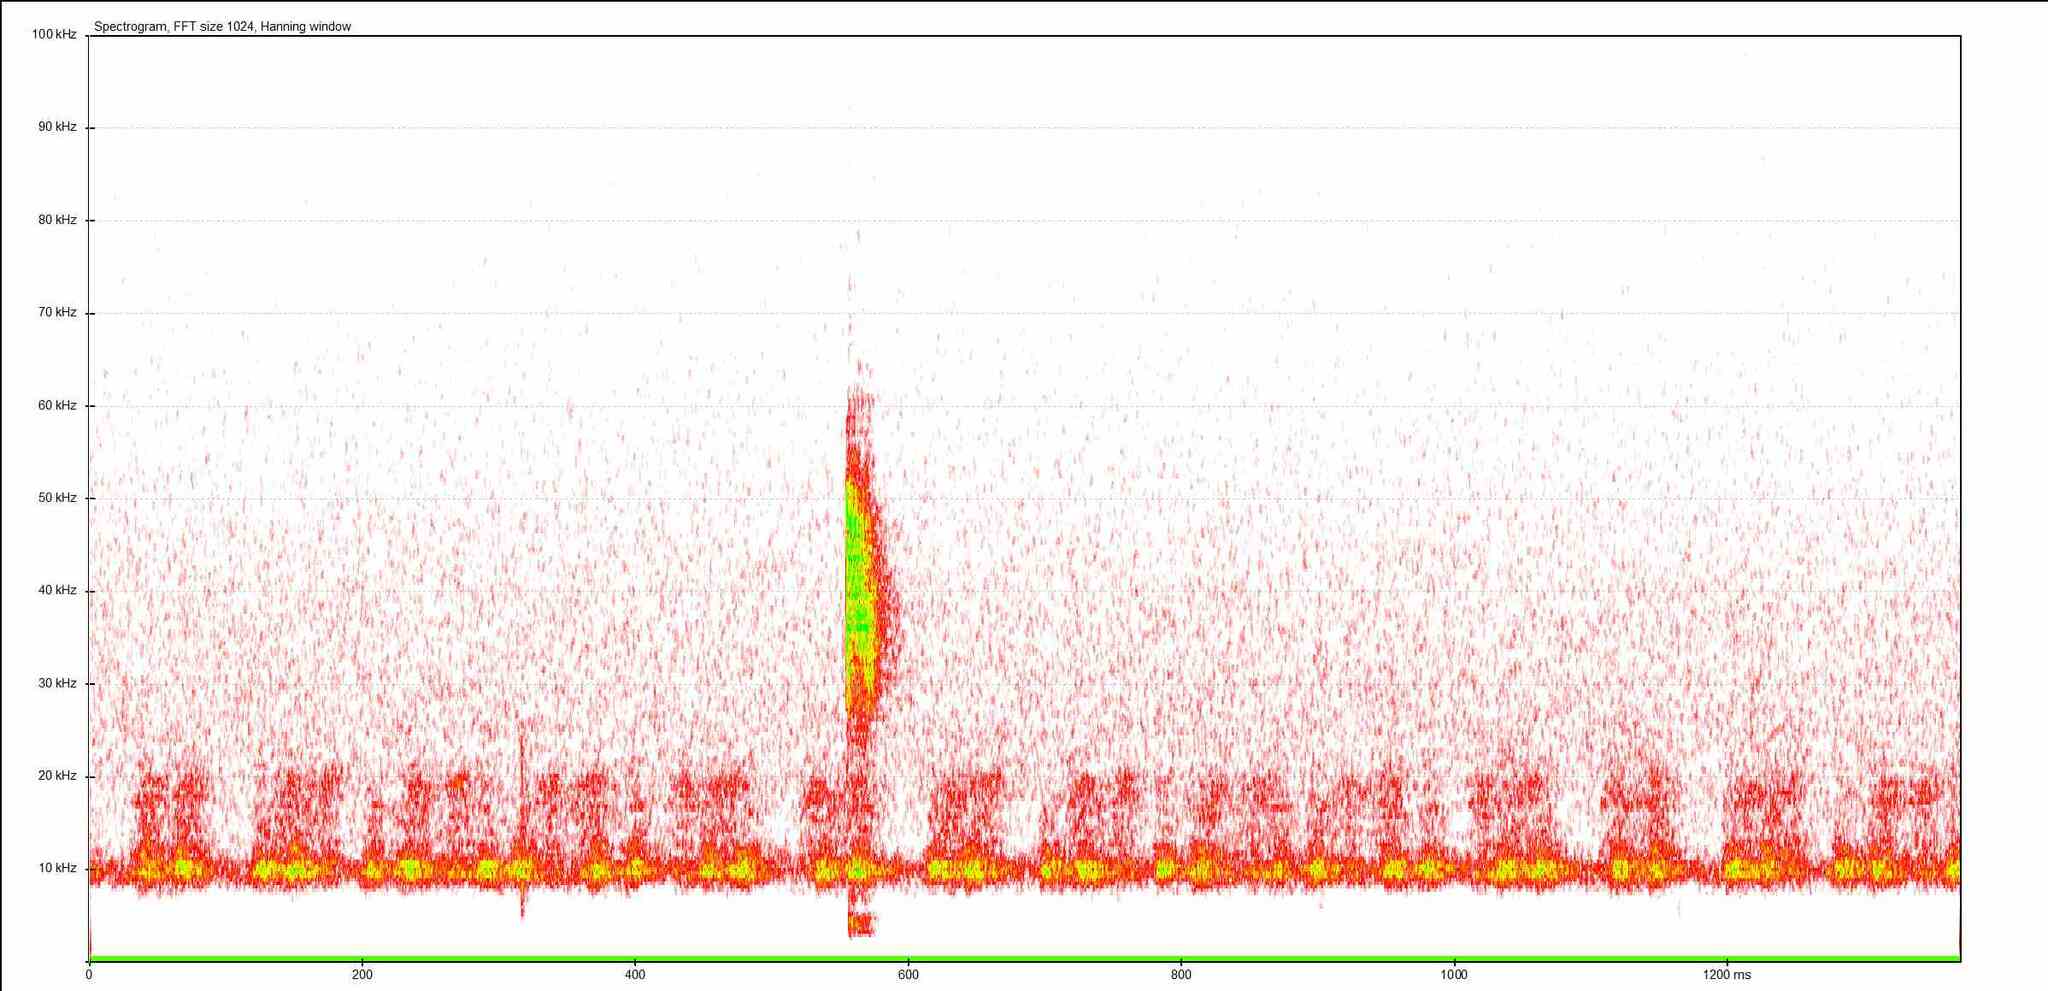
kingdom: Animalia
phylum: Arthropoda
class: Insecta
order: Orthoptera
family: Tettigoniidae
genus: Leptophyes
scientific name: Leptophyes punctatissima
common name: Speckled bush-cricket
